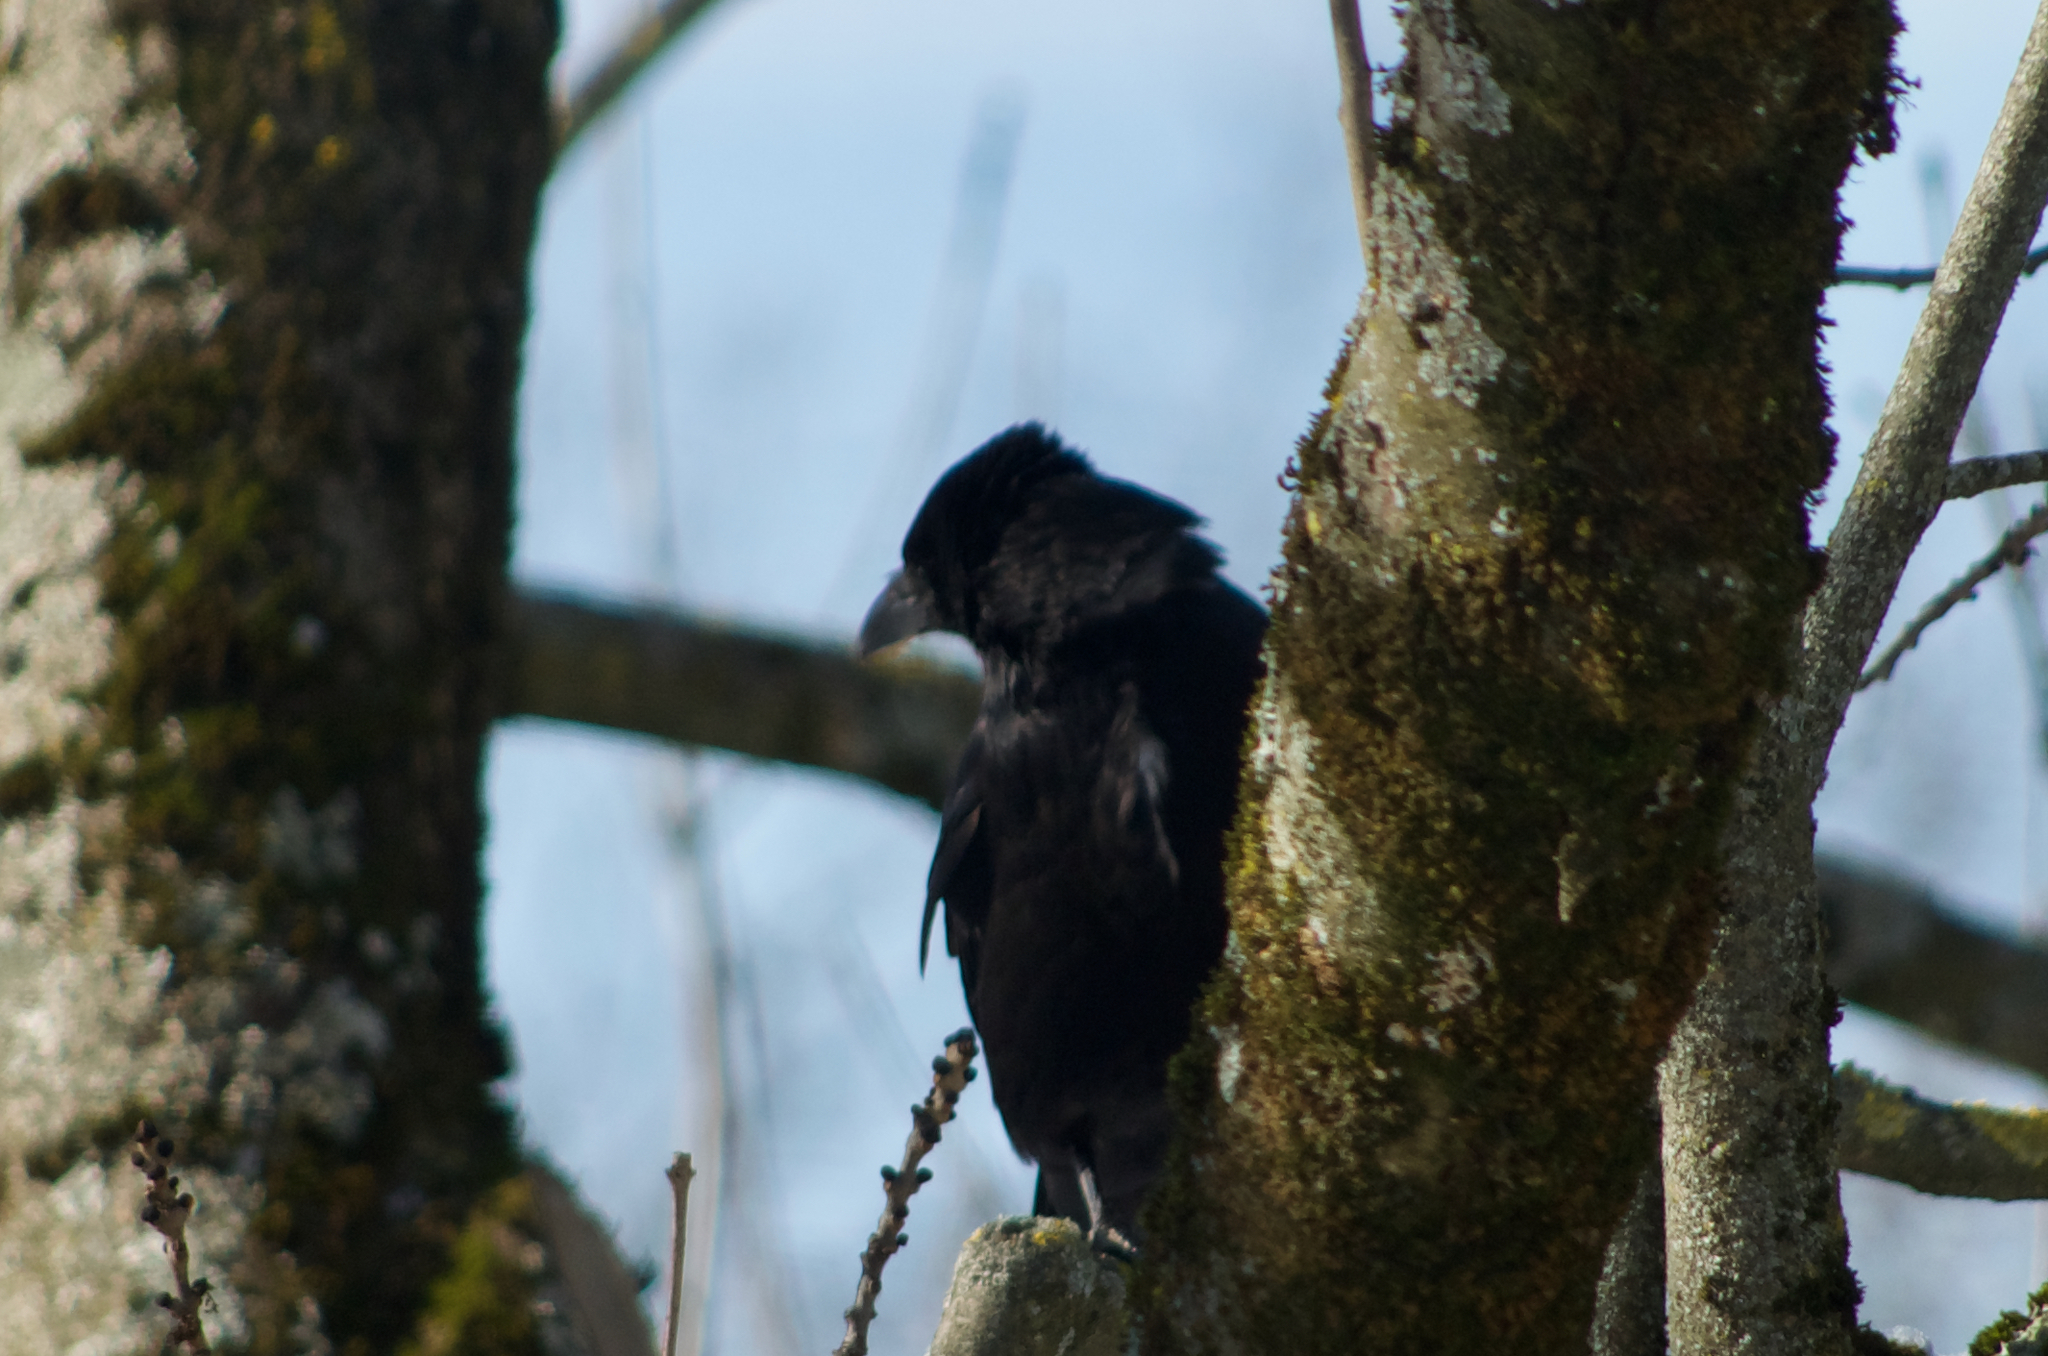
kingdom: Animalia
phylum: Chordata
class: Aves
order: Passeriformes
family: Corvidae
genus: Corvus
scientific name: Corvus corone
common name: Carrion crow
